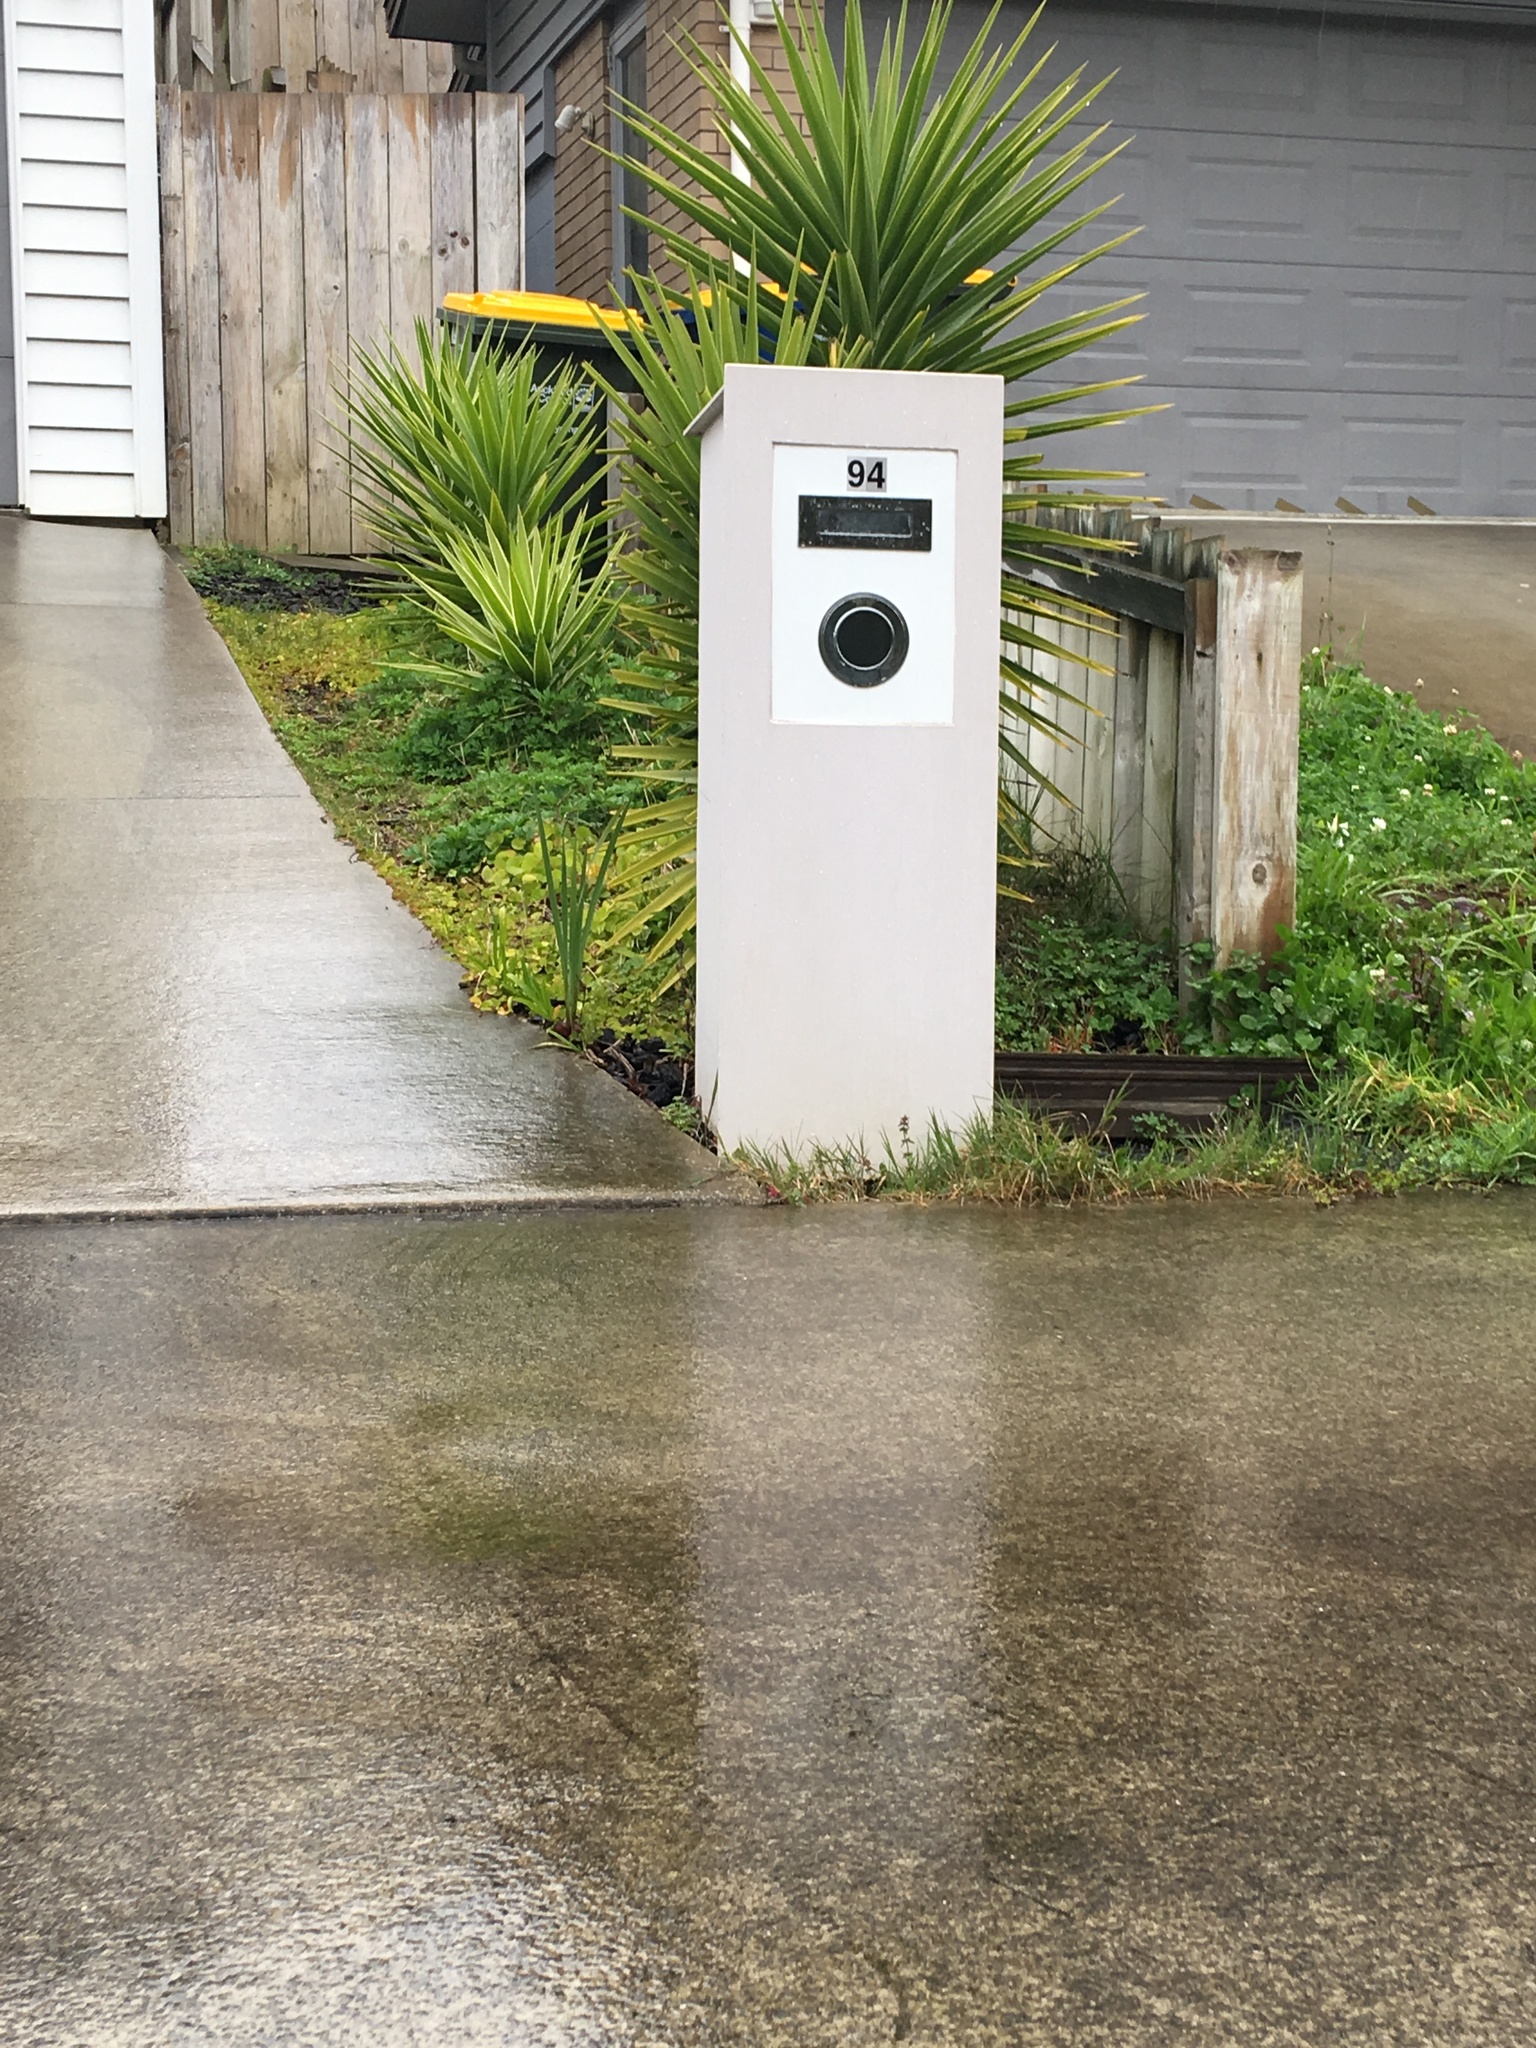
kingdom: Plantae
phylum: Tracheophyta
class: Magnoliopsida
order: Sapindales
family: Sapindaceae
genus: Alectryon
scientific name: Alectryon excelsus
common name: Three kings titoki
